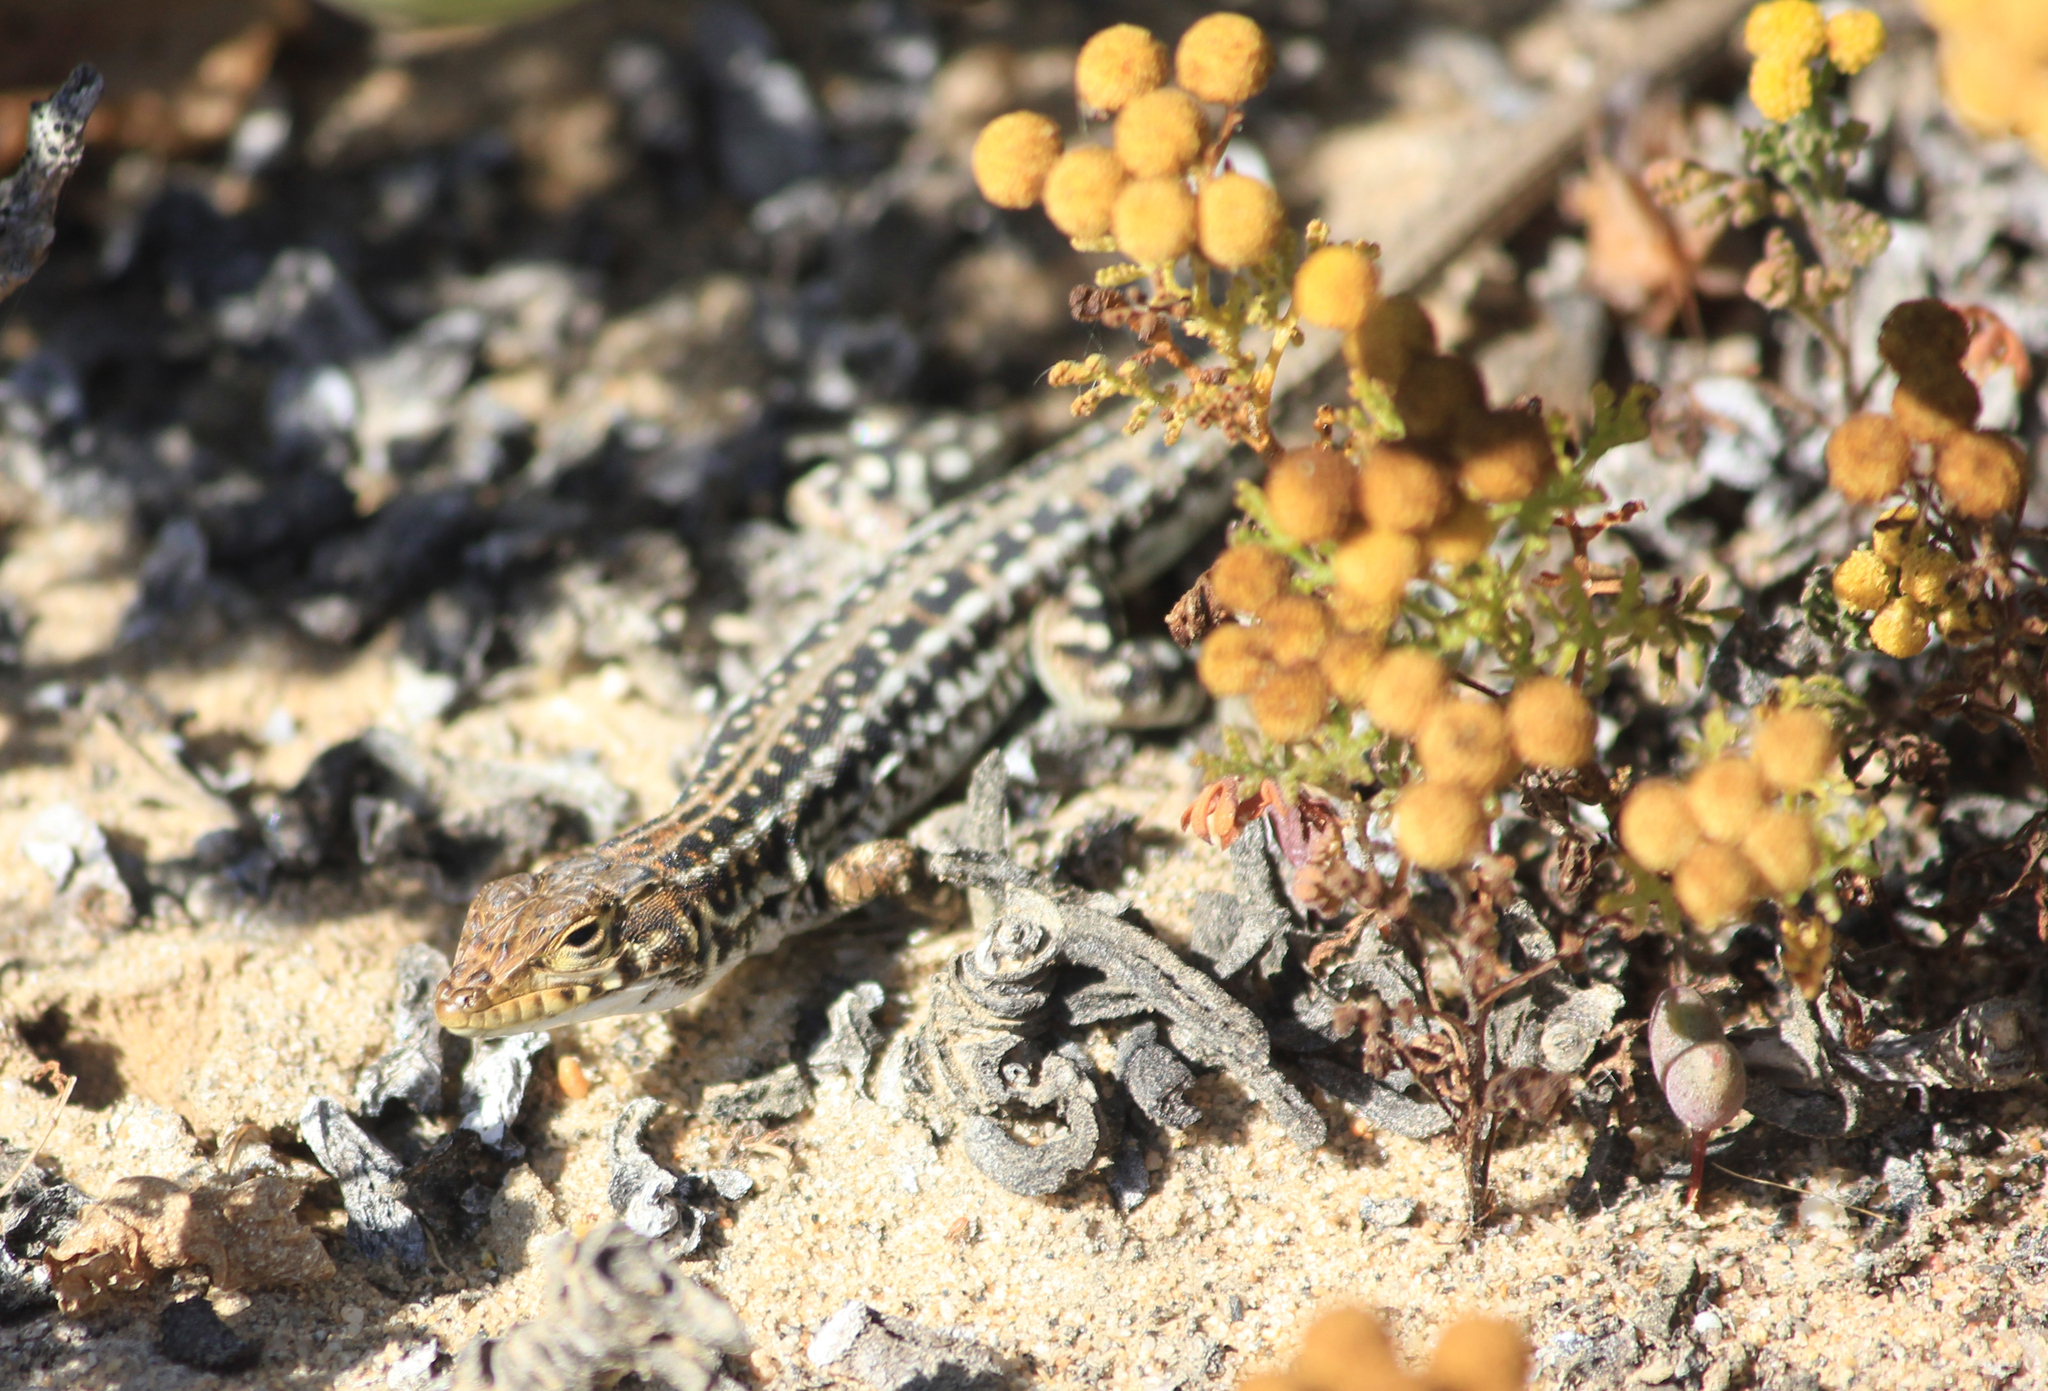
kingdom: Animalia
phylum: Chordata
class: Squamata
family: Lacertidae
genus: Meroles
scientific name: Meroles knoxii
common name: Knox's desert lizard
